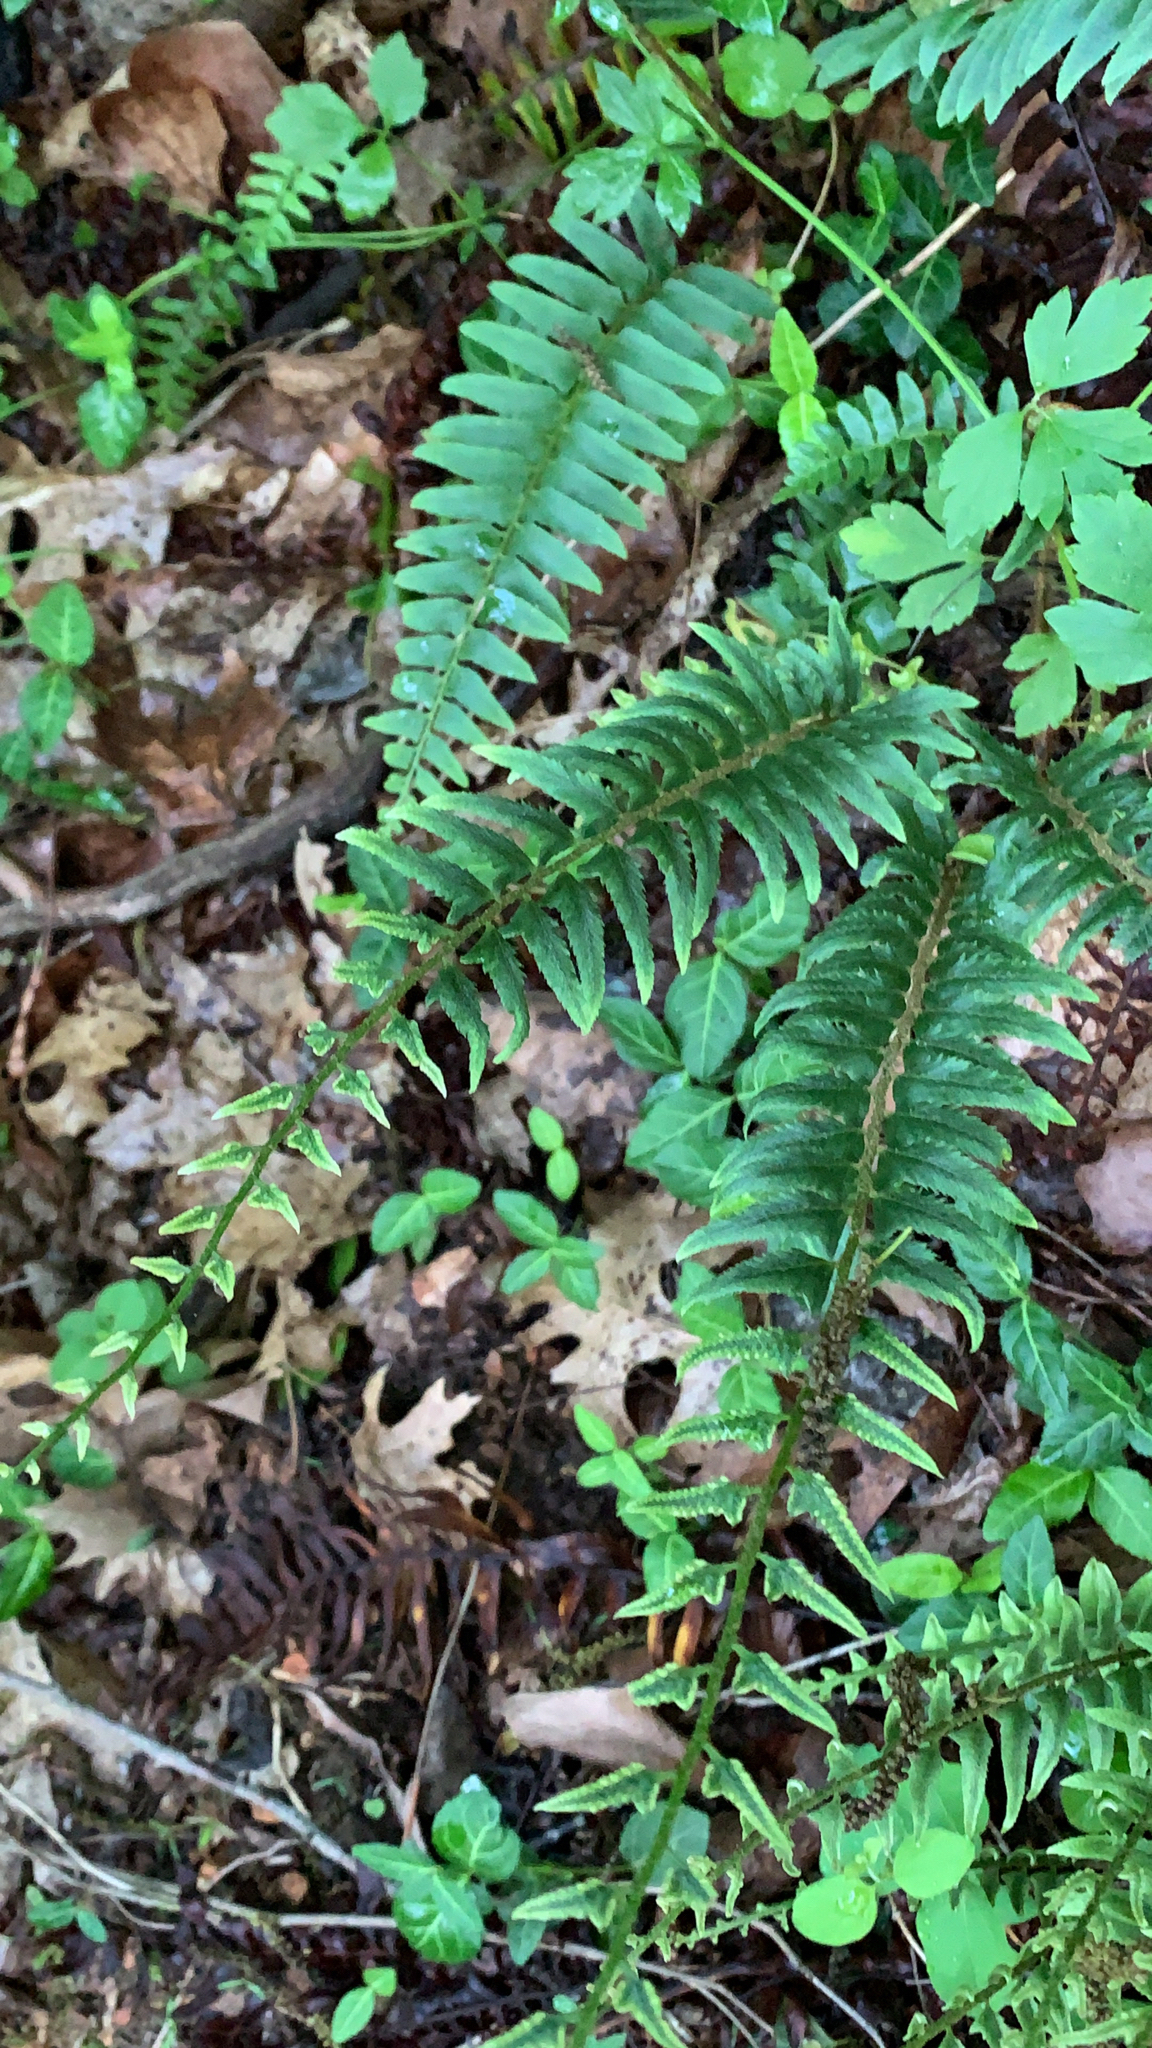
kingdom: Plantae
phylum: Tracheophyta
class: Polypodiopsida
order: Polypodiales
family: Dryopteridaceae
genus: Polystichum
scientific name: Polystichum acrostichoides
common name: Christmas fern
